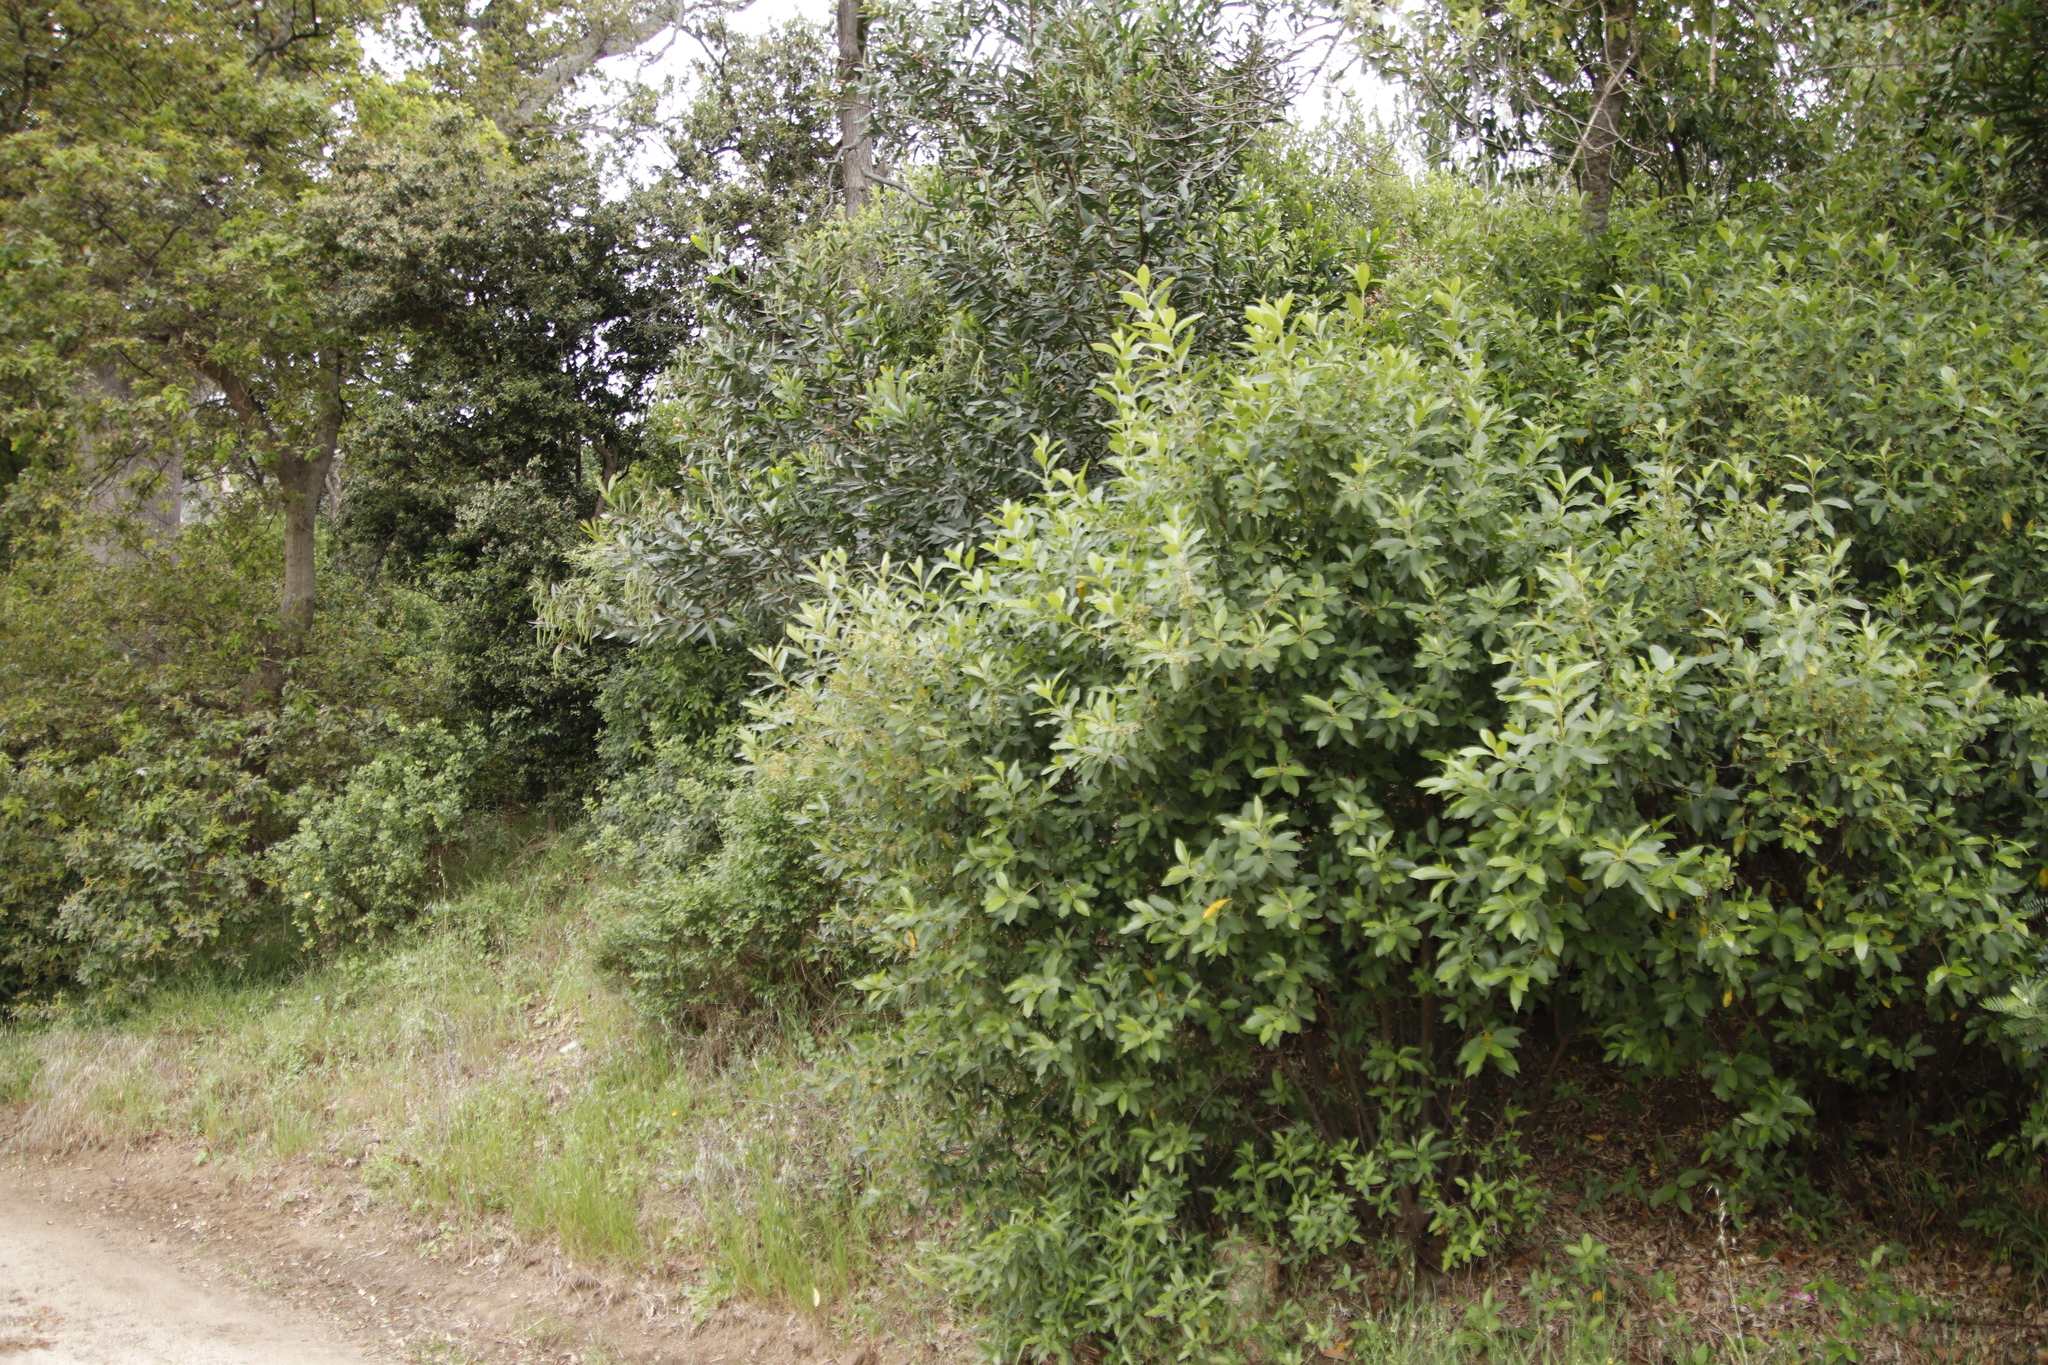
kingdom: Plantae
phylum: Tracheophyta
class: Magnoliopsida
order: Malpighiales
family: Achariaceae
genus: Kiggelaria
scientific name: Kiggelaria africana
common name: Wild peach
